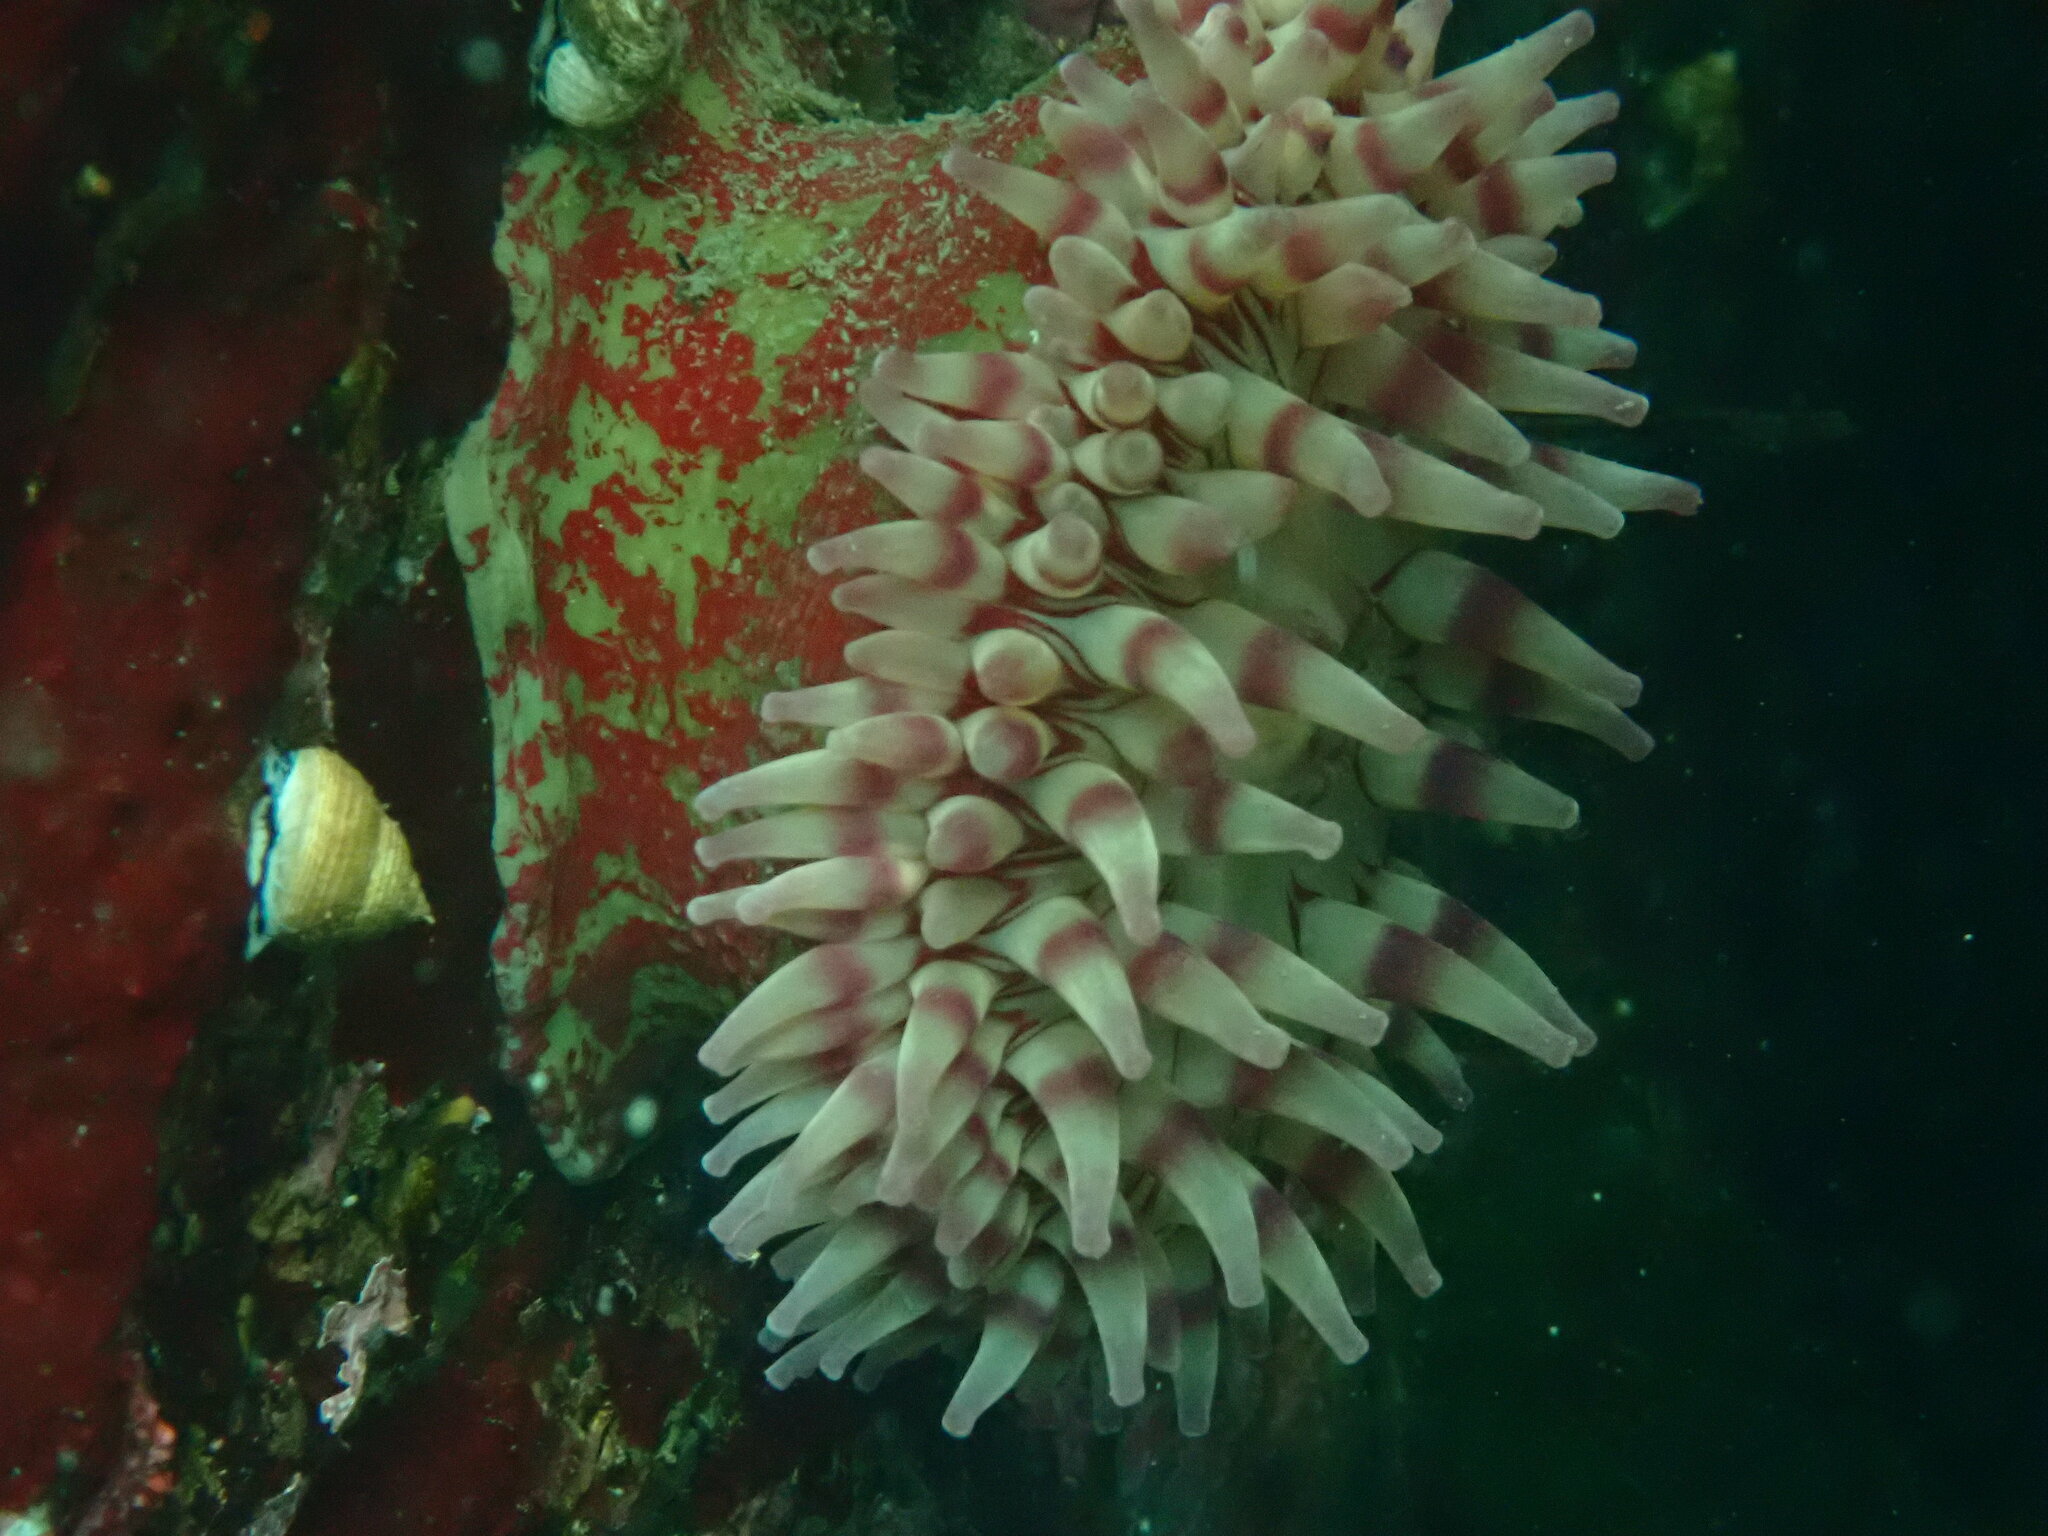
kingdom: Animalia
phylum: Cnidaria
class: Anthozoa
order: Actiniaria
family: Actiniidae
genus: Urticina
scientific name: Urticina grebelnyi
